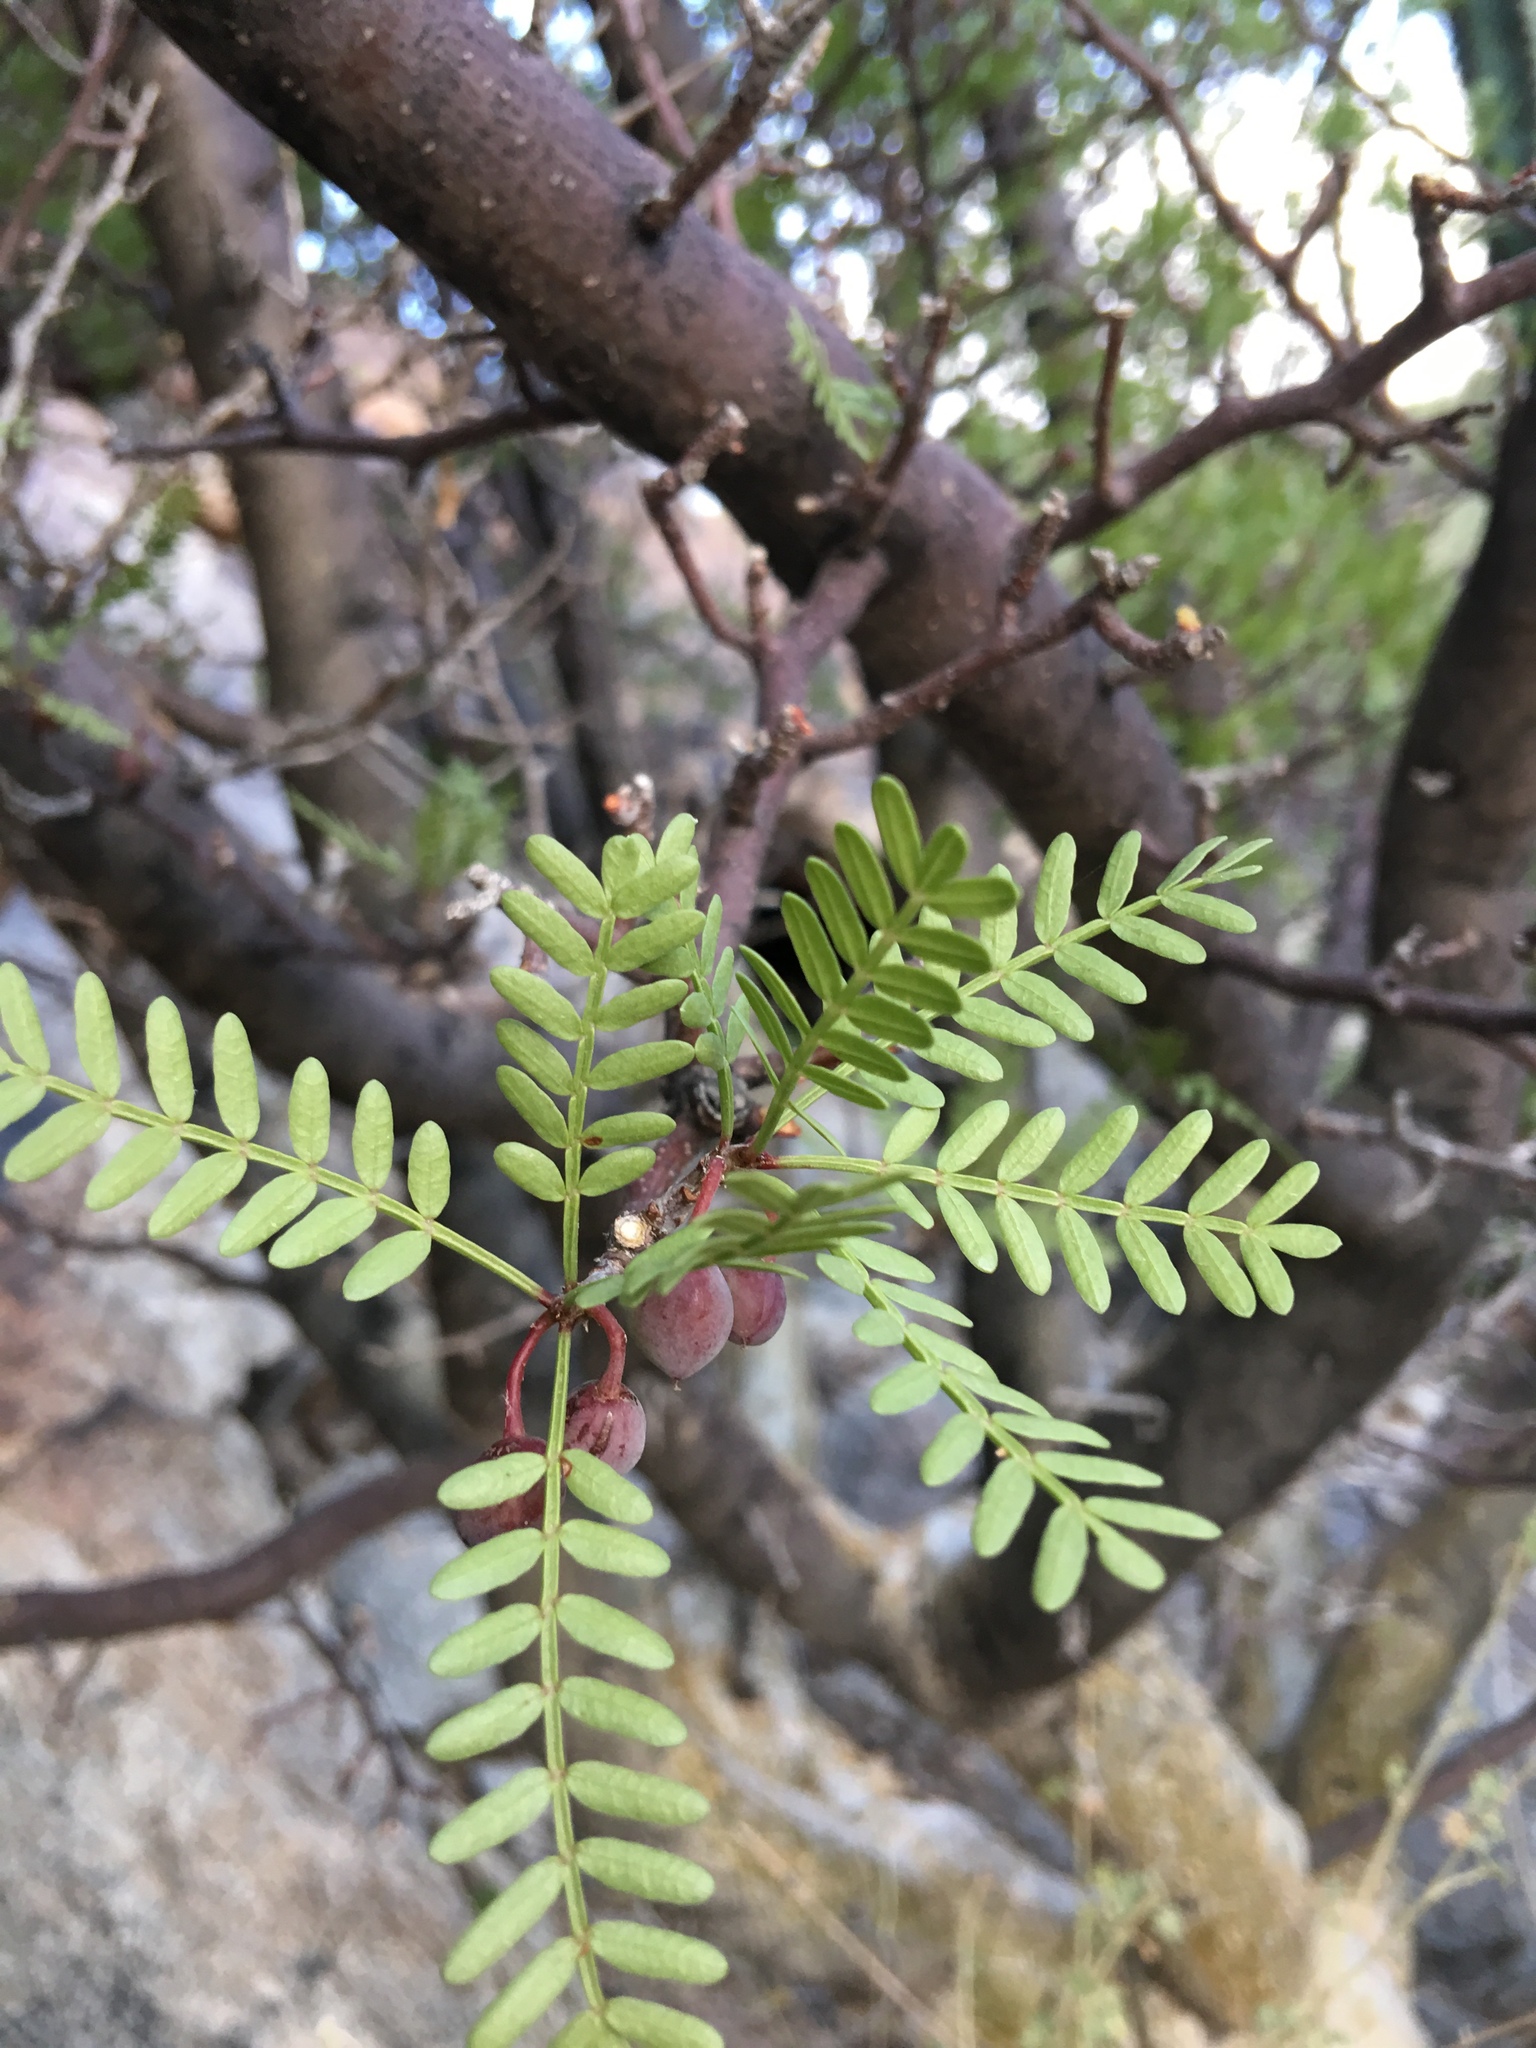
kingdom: Plantae
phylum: Tracheophyta
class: Magnoliopsida
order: Sapindales
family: Burseraceae
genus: Bursera
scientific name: Bursera microphylla
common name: Elephant tree
